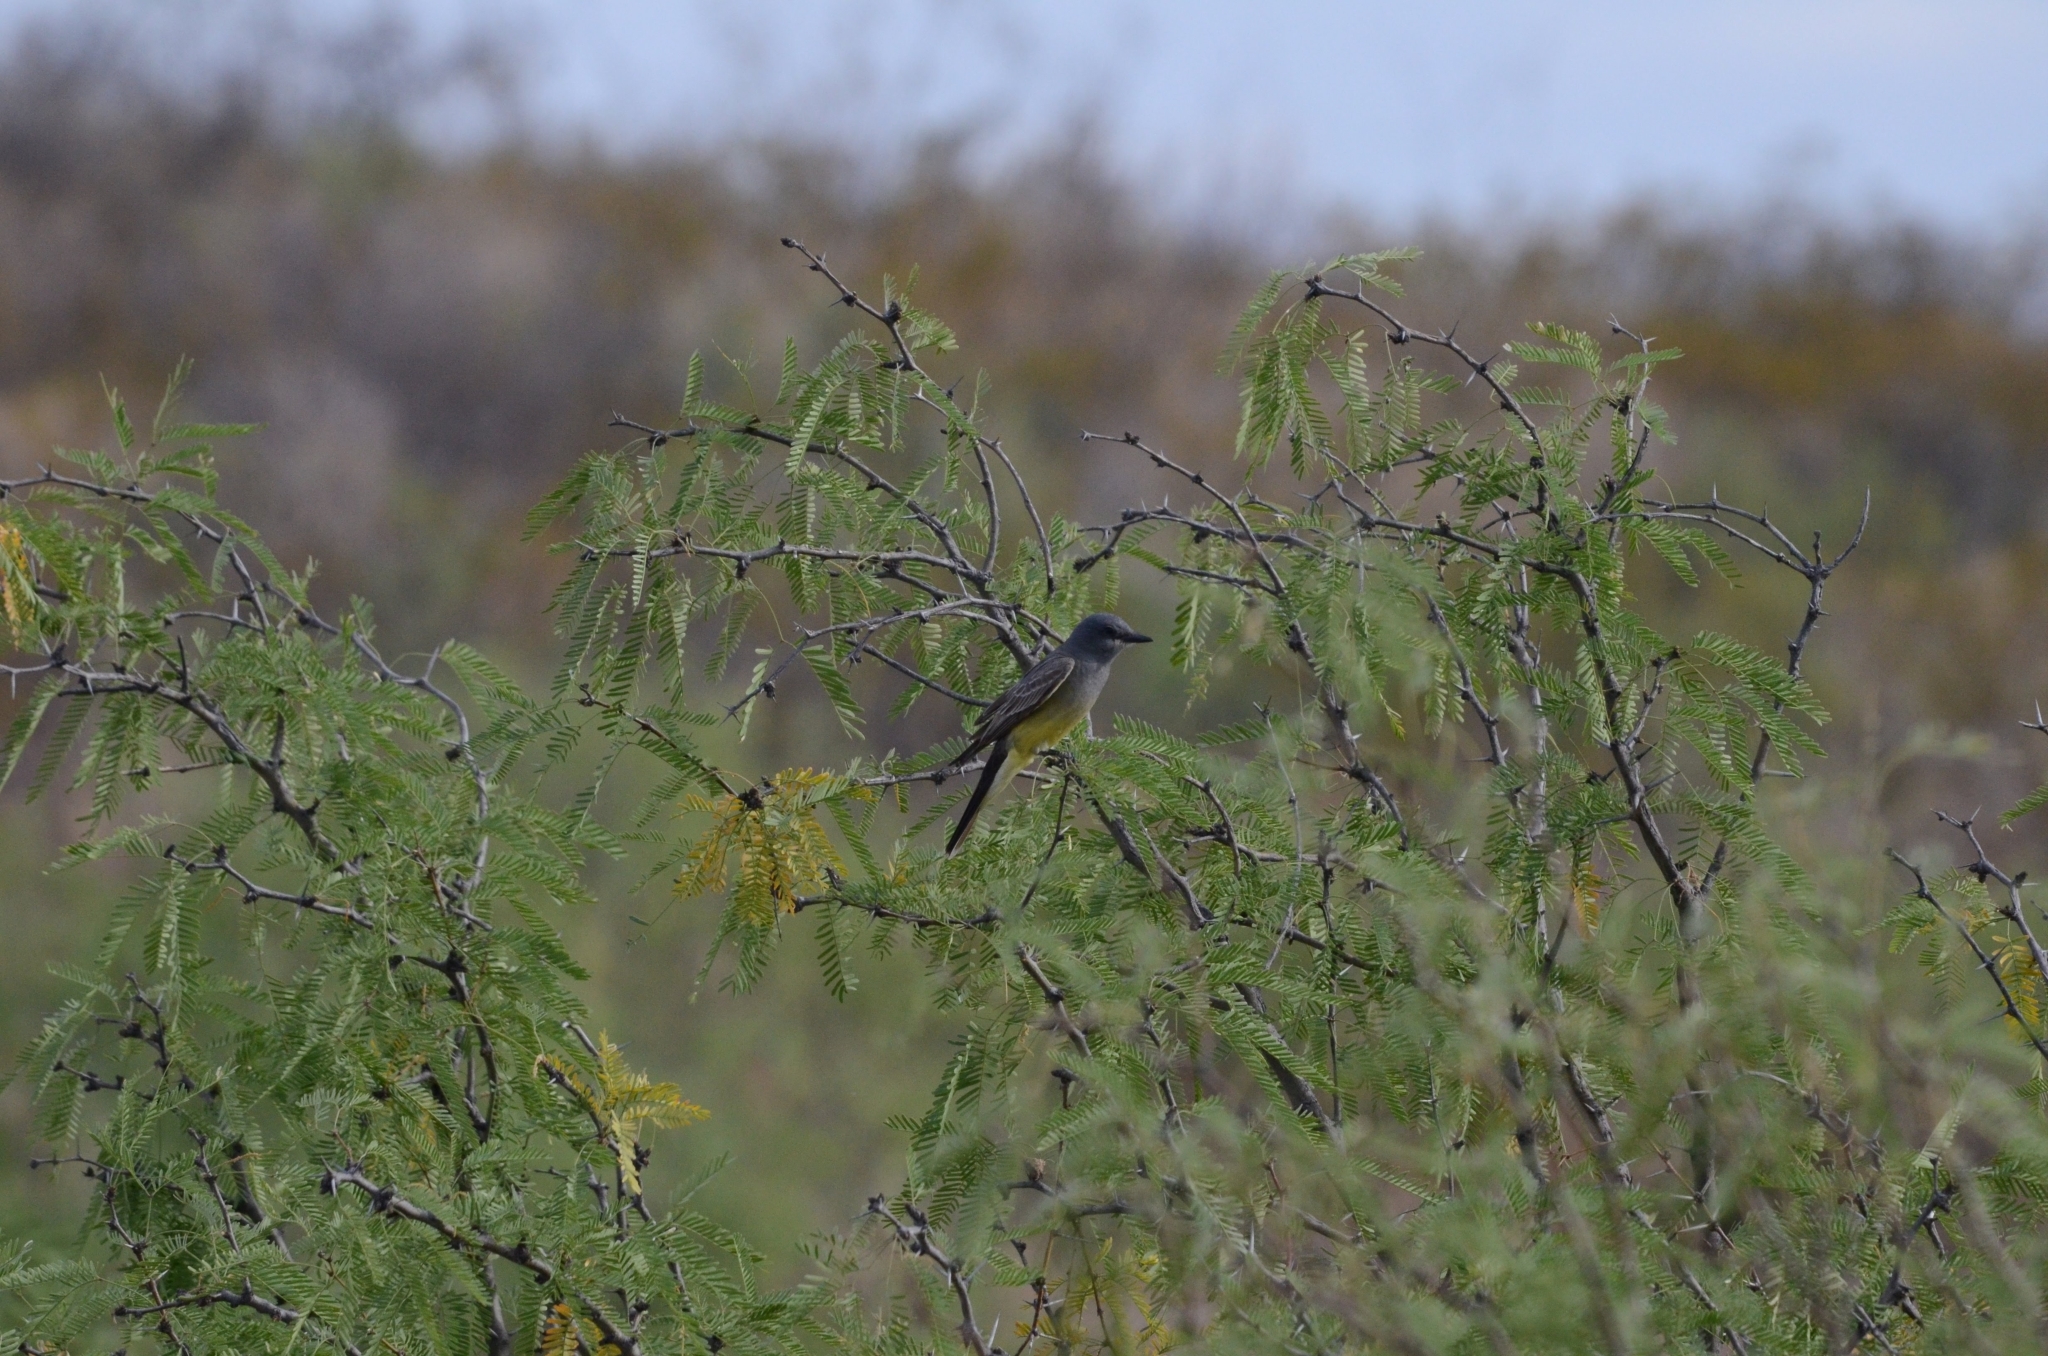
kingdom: Animalia
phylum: Chordata
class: Aves
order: Passeriformes
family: Tyrannidae
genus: Tyrannus
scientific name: Tyrannus vociferans
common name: Cassin's kingbird
